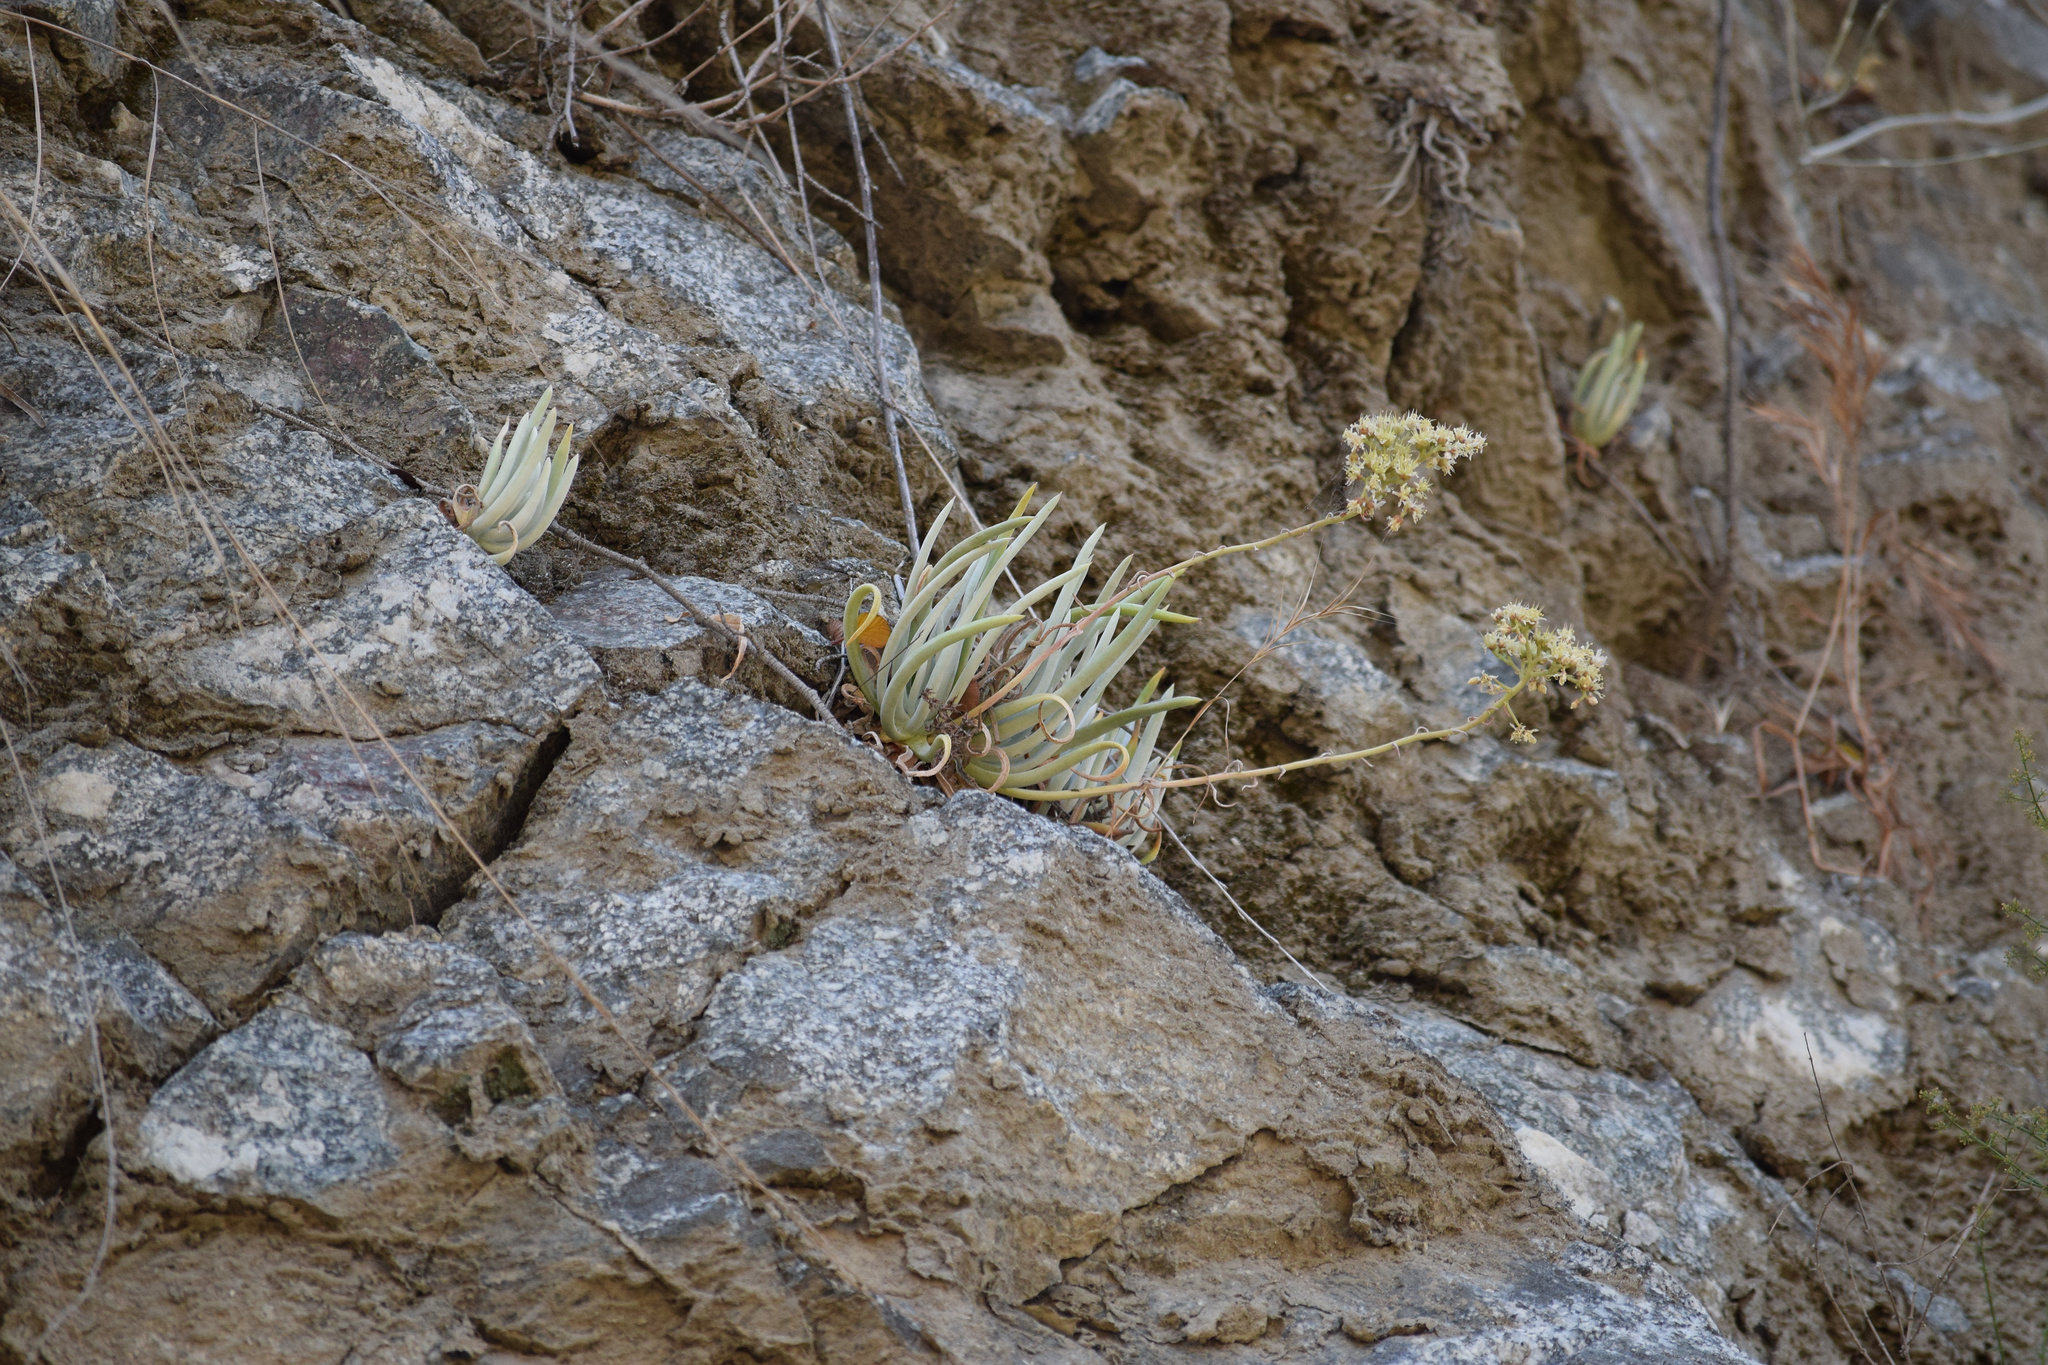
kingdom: Plantae
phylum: Tracheophyta
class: Magnoliopsida
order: Saxifragales
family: Crassulaceae
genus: Dudleya
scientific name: Dudleya densiflora
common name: San gabriel mountains dudleya
